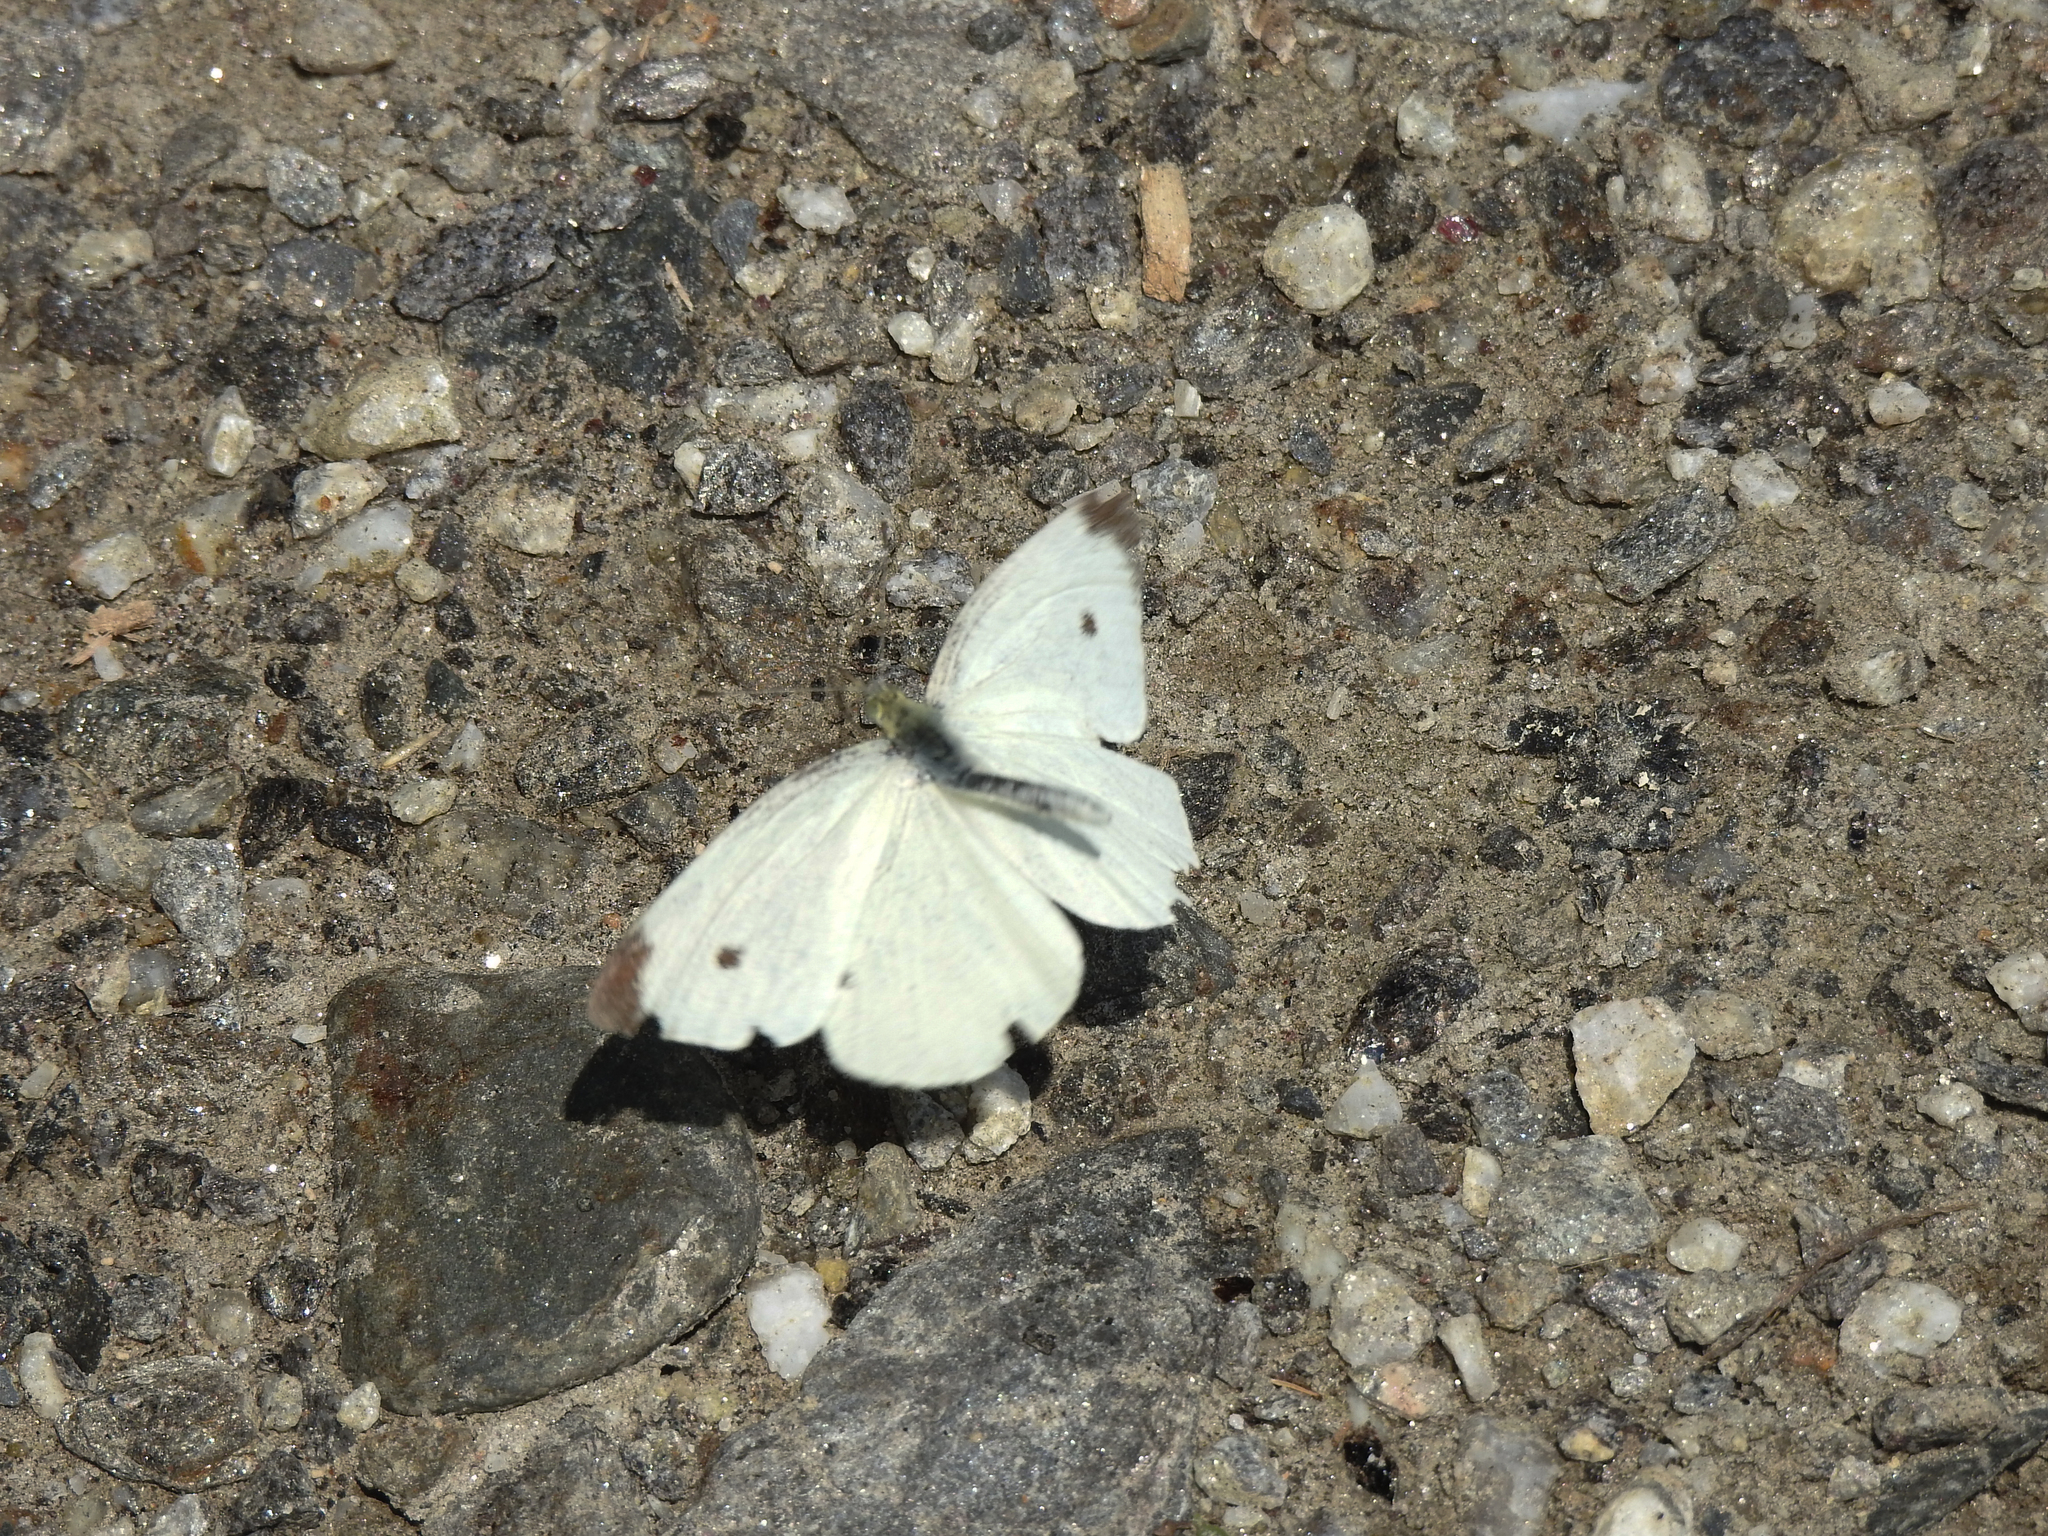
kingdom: Animalia
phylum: Arthropoda
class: Insecta
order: Lepidoptera
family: Pieridae
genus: Pieris
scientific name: Pieris rapae
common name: Small white
